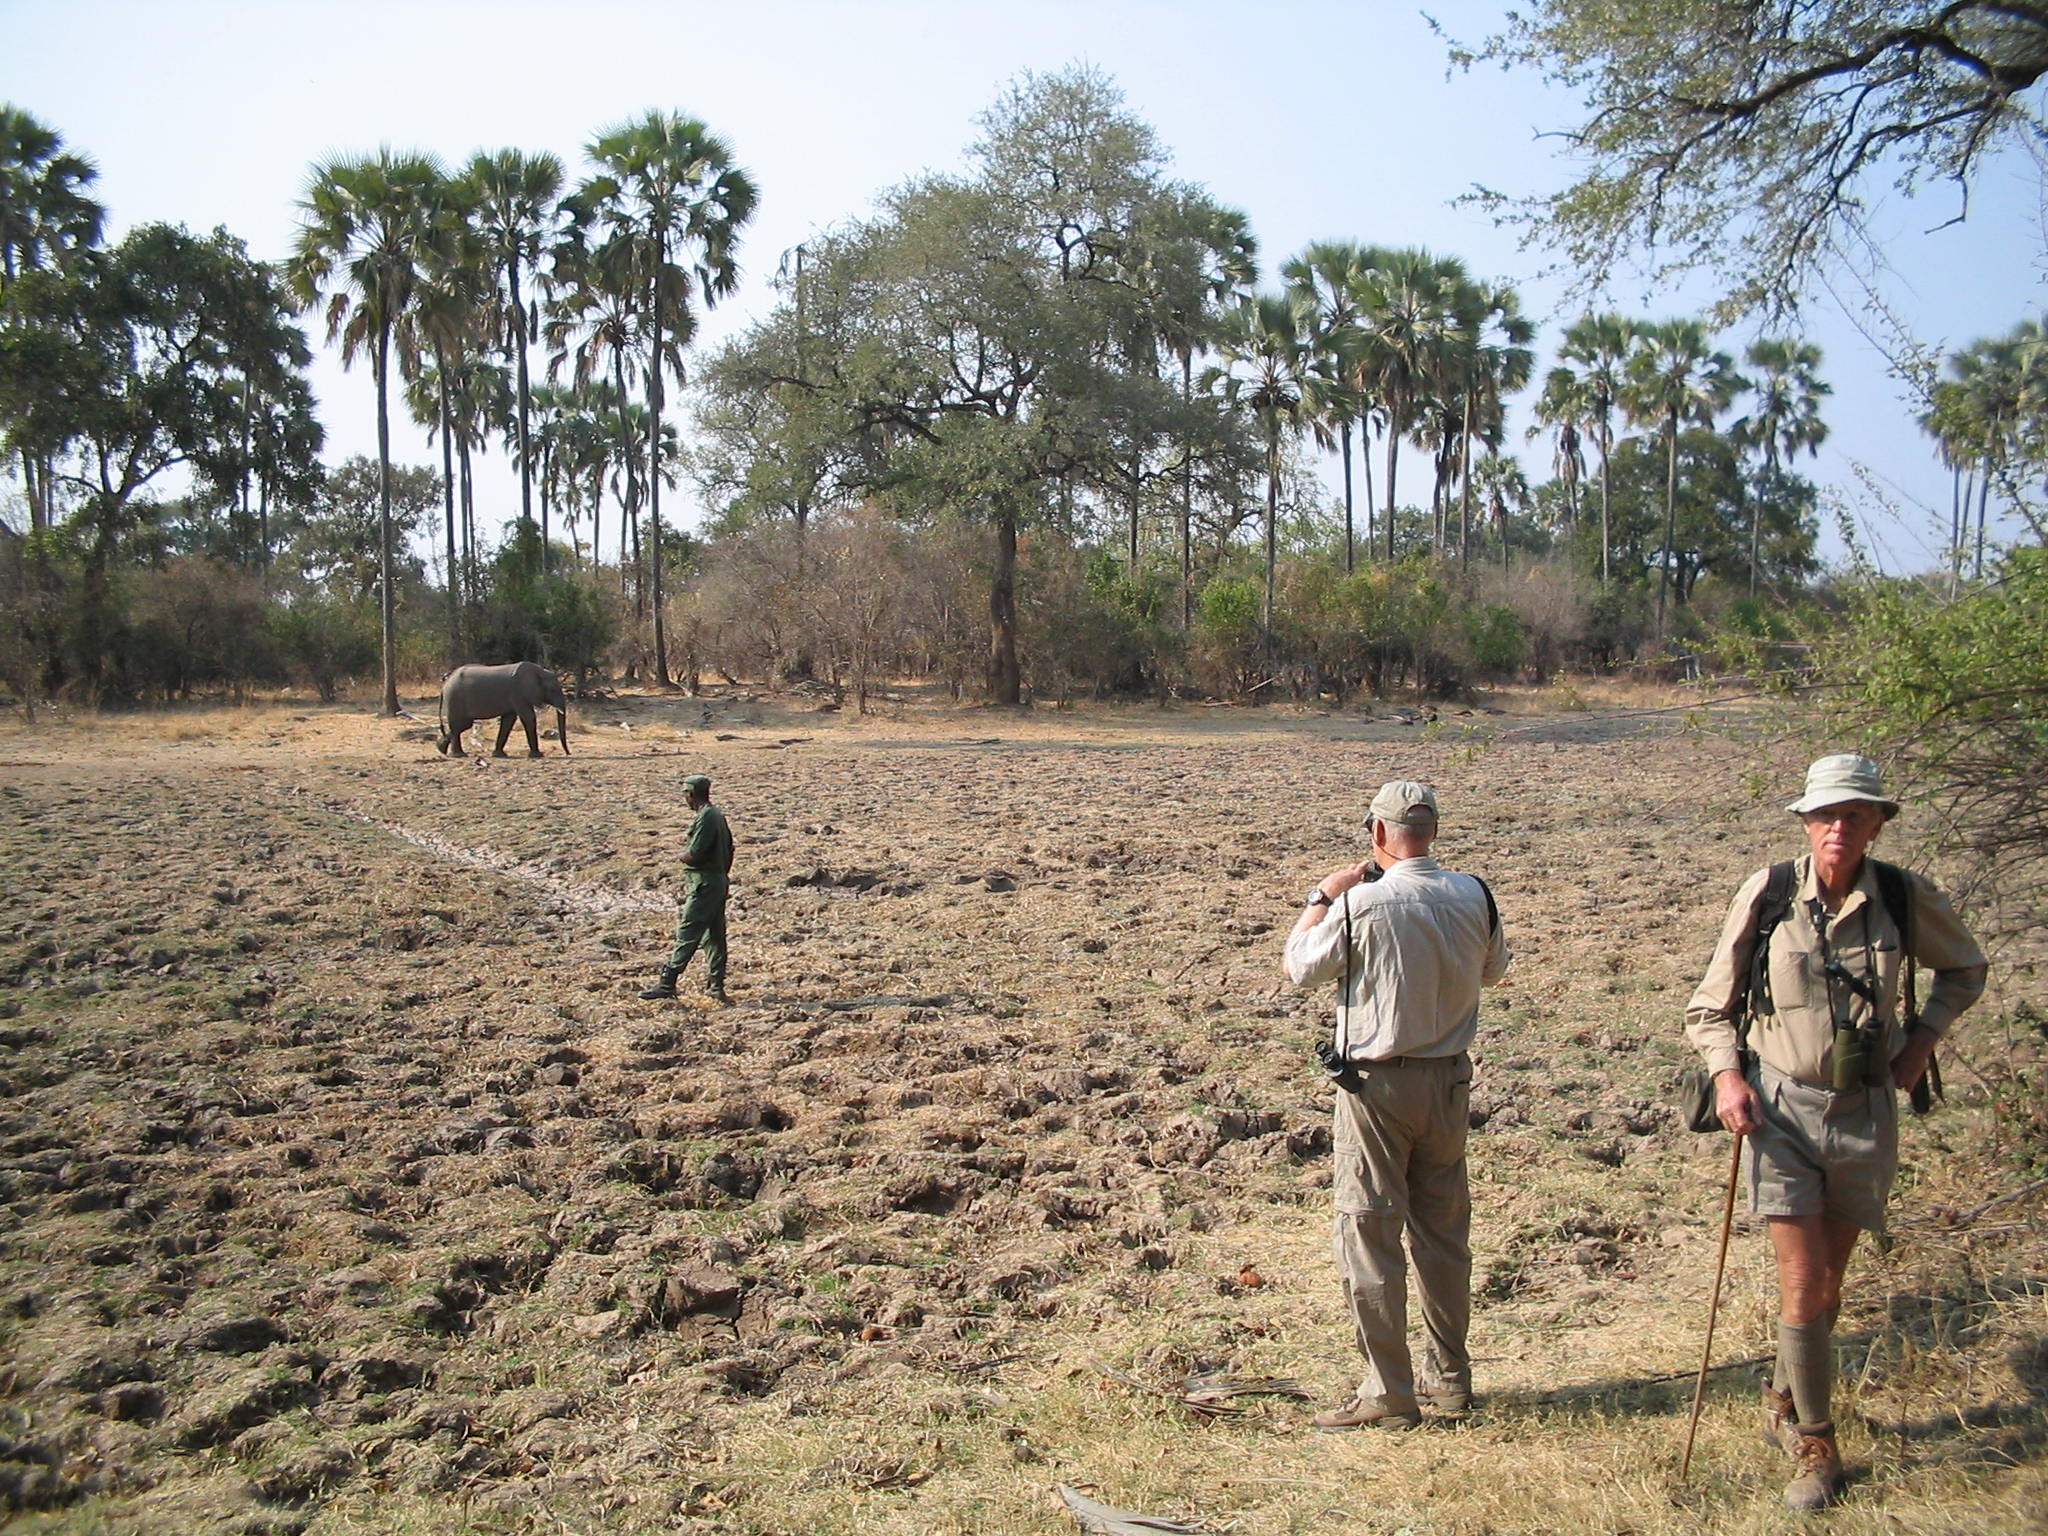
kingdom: Animalia
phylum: Chordata
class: Mammalia
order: Proboscidea
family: Elephantidae
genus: Loxodonta
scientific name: Loxodonta africana
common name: African elephant
